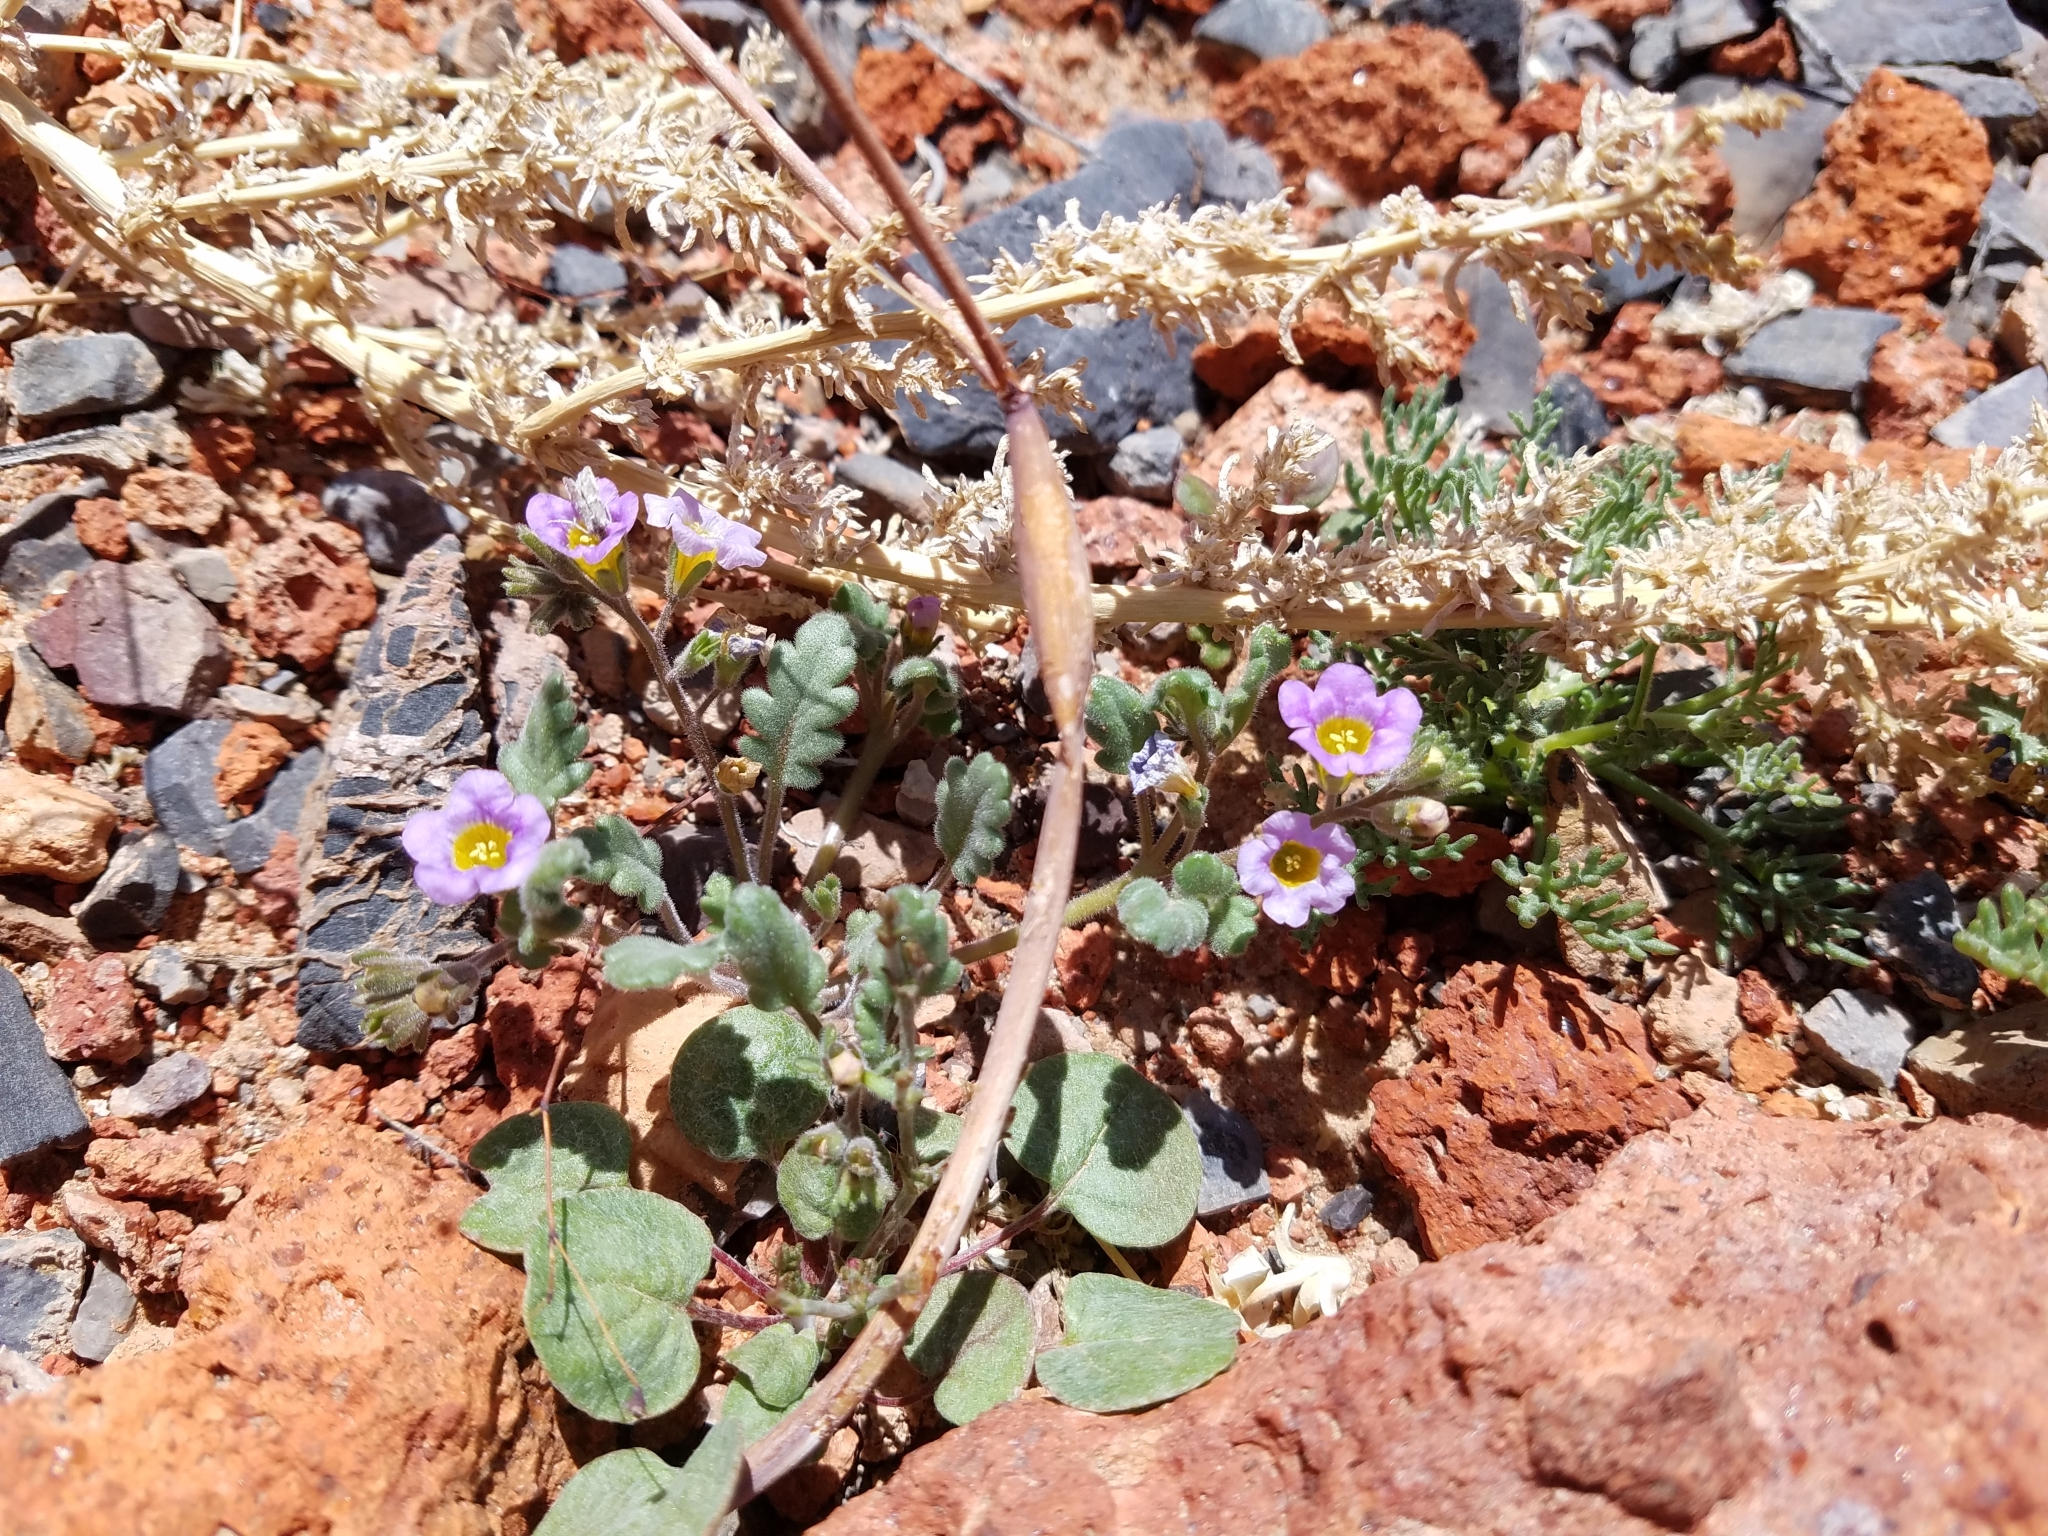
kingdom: Plantae
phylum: Tracheophyta
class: Magnoliopsida
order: Boraginales
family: Hydrophyllaceae
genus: Phacelia
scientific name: Phacelia fremontii
